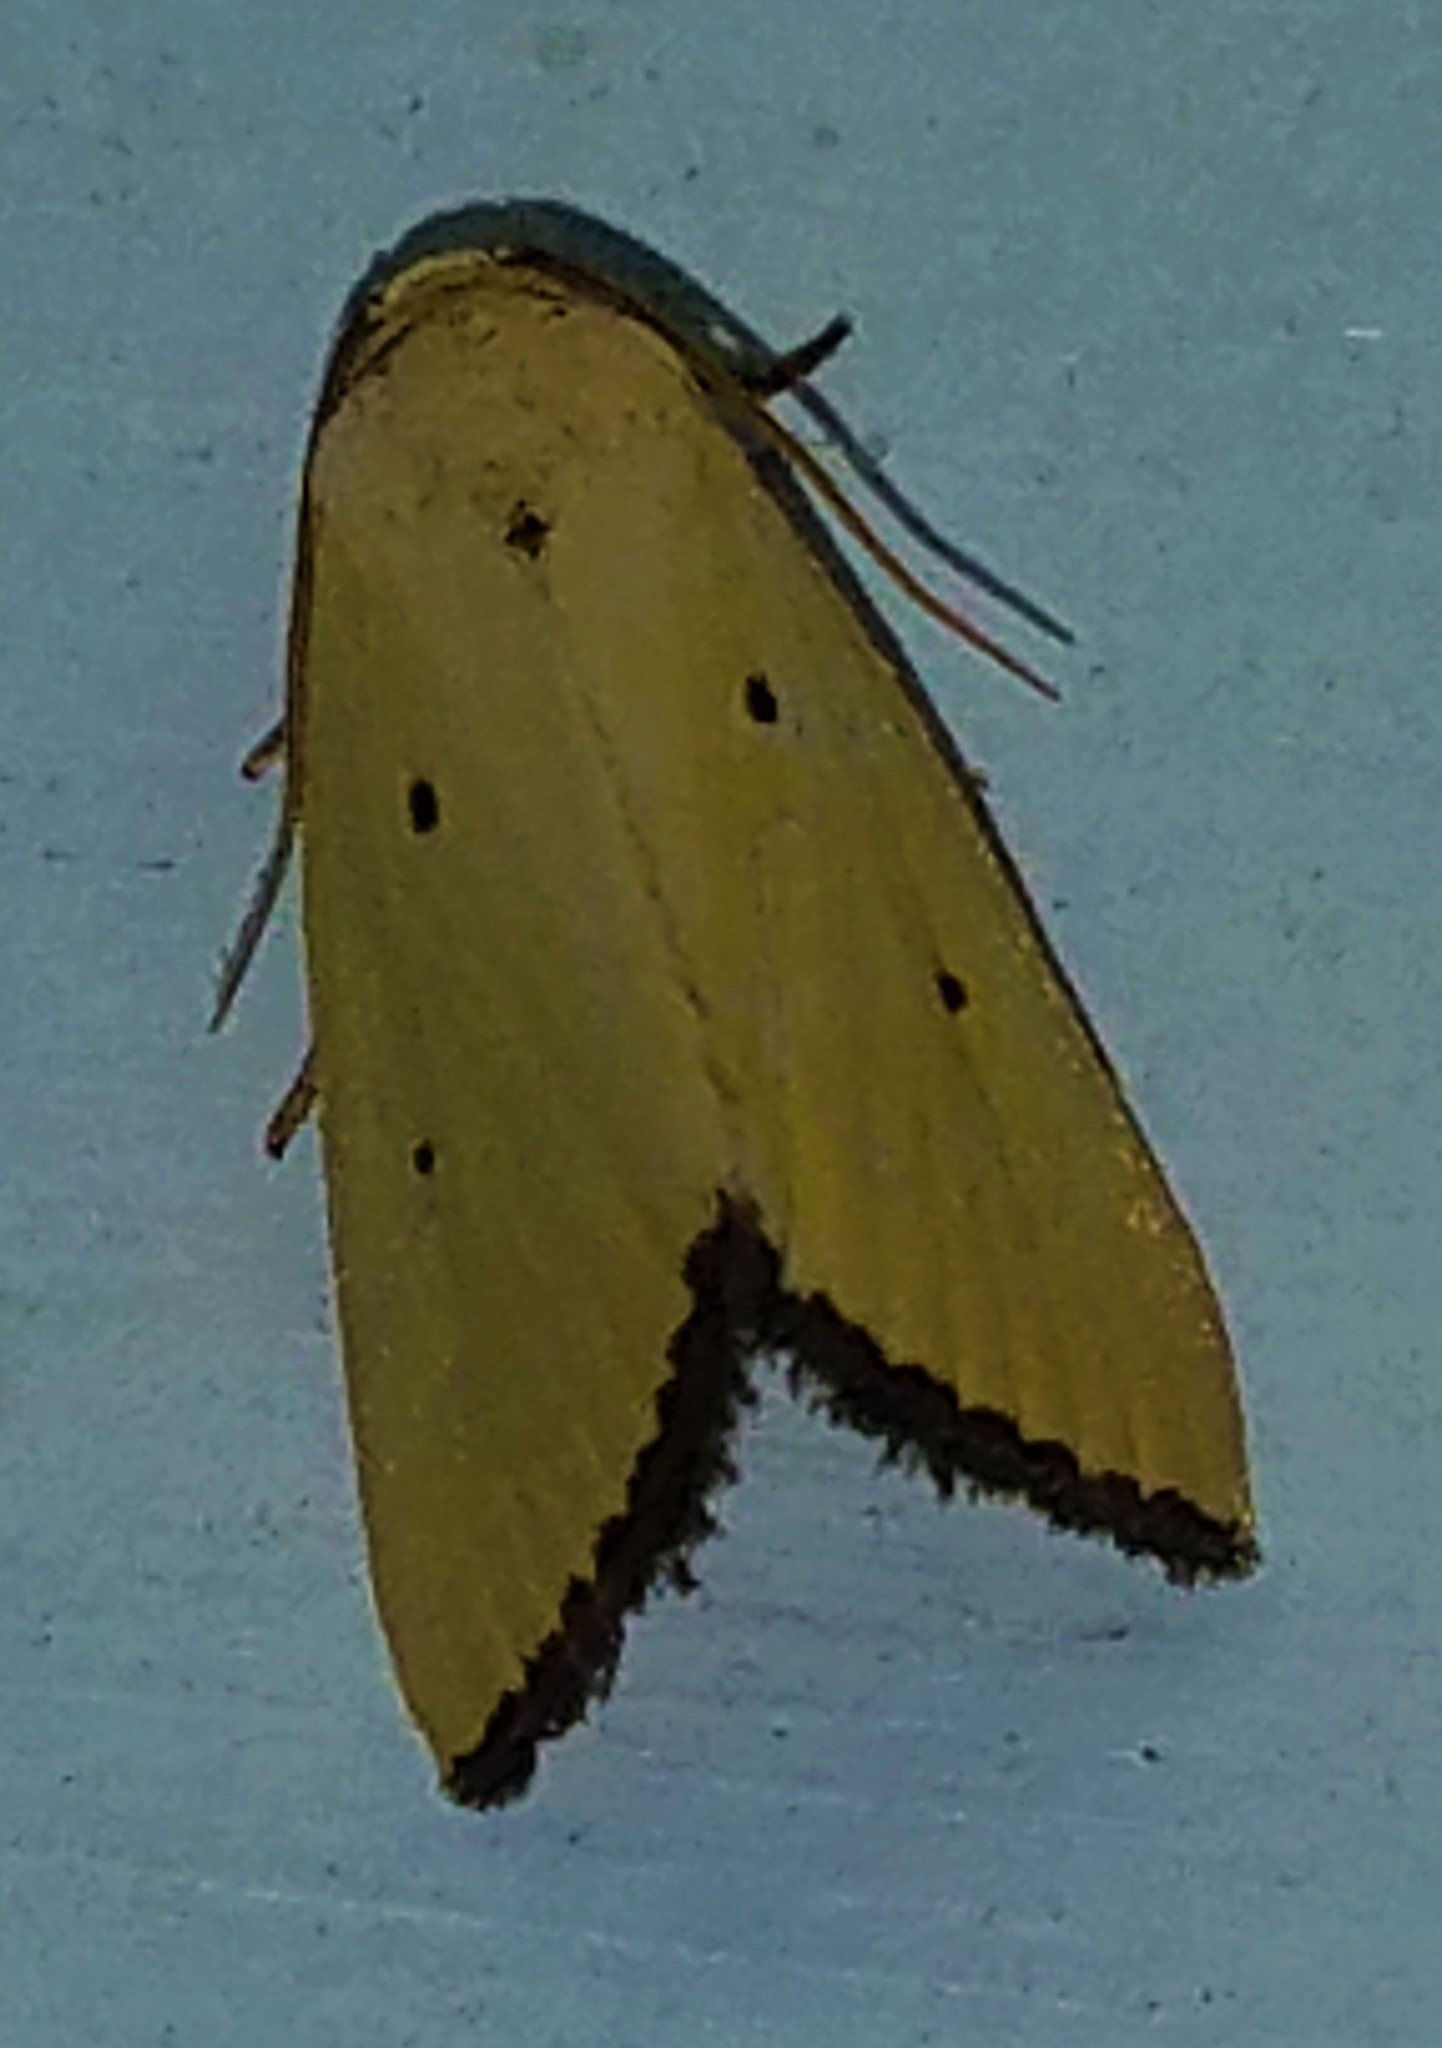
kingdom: Animalia
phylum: Arthropoda
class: Insecta
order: Lepidoptera
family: Noctuidae
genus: Marimatha
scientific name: Marimatha nigrofimbria
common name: Black-bordered lemon moth
